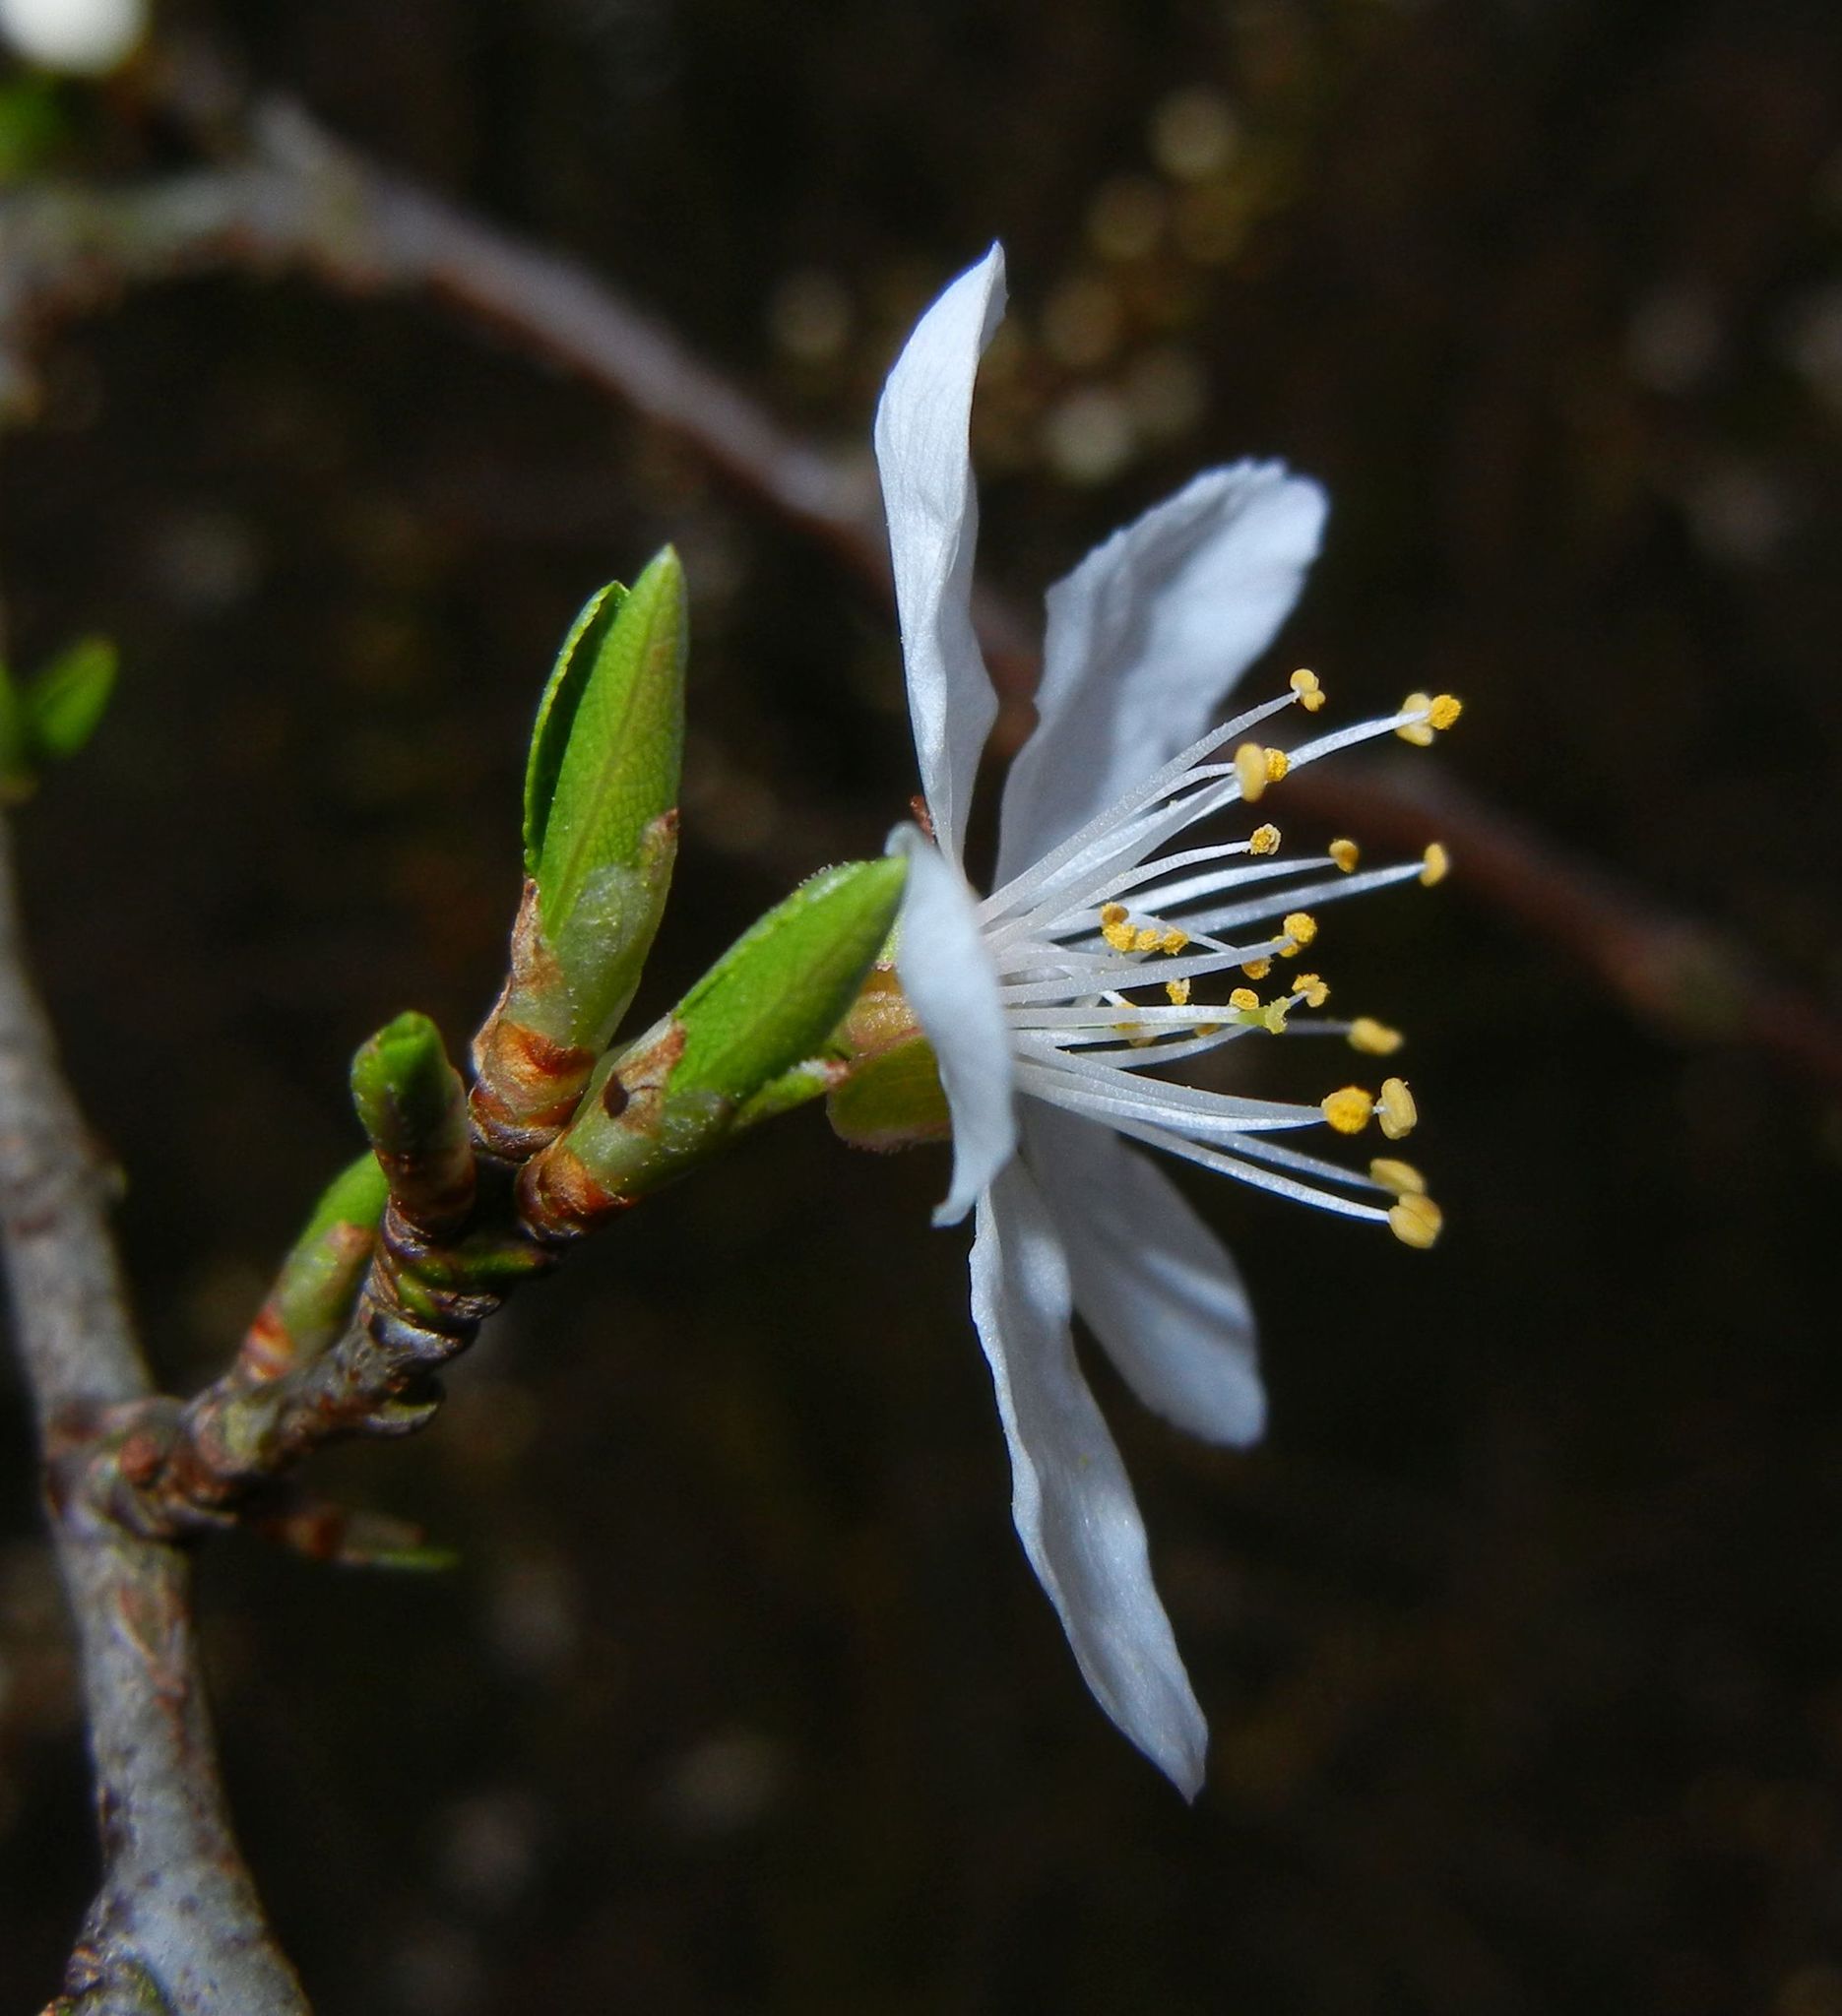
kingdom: Plantae
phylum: Tracheophyta
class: Magnoliopsida
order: Rosales
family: Rosaceae
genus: Prunus
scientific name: Prunus cerasifera
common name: Cherry plum
